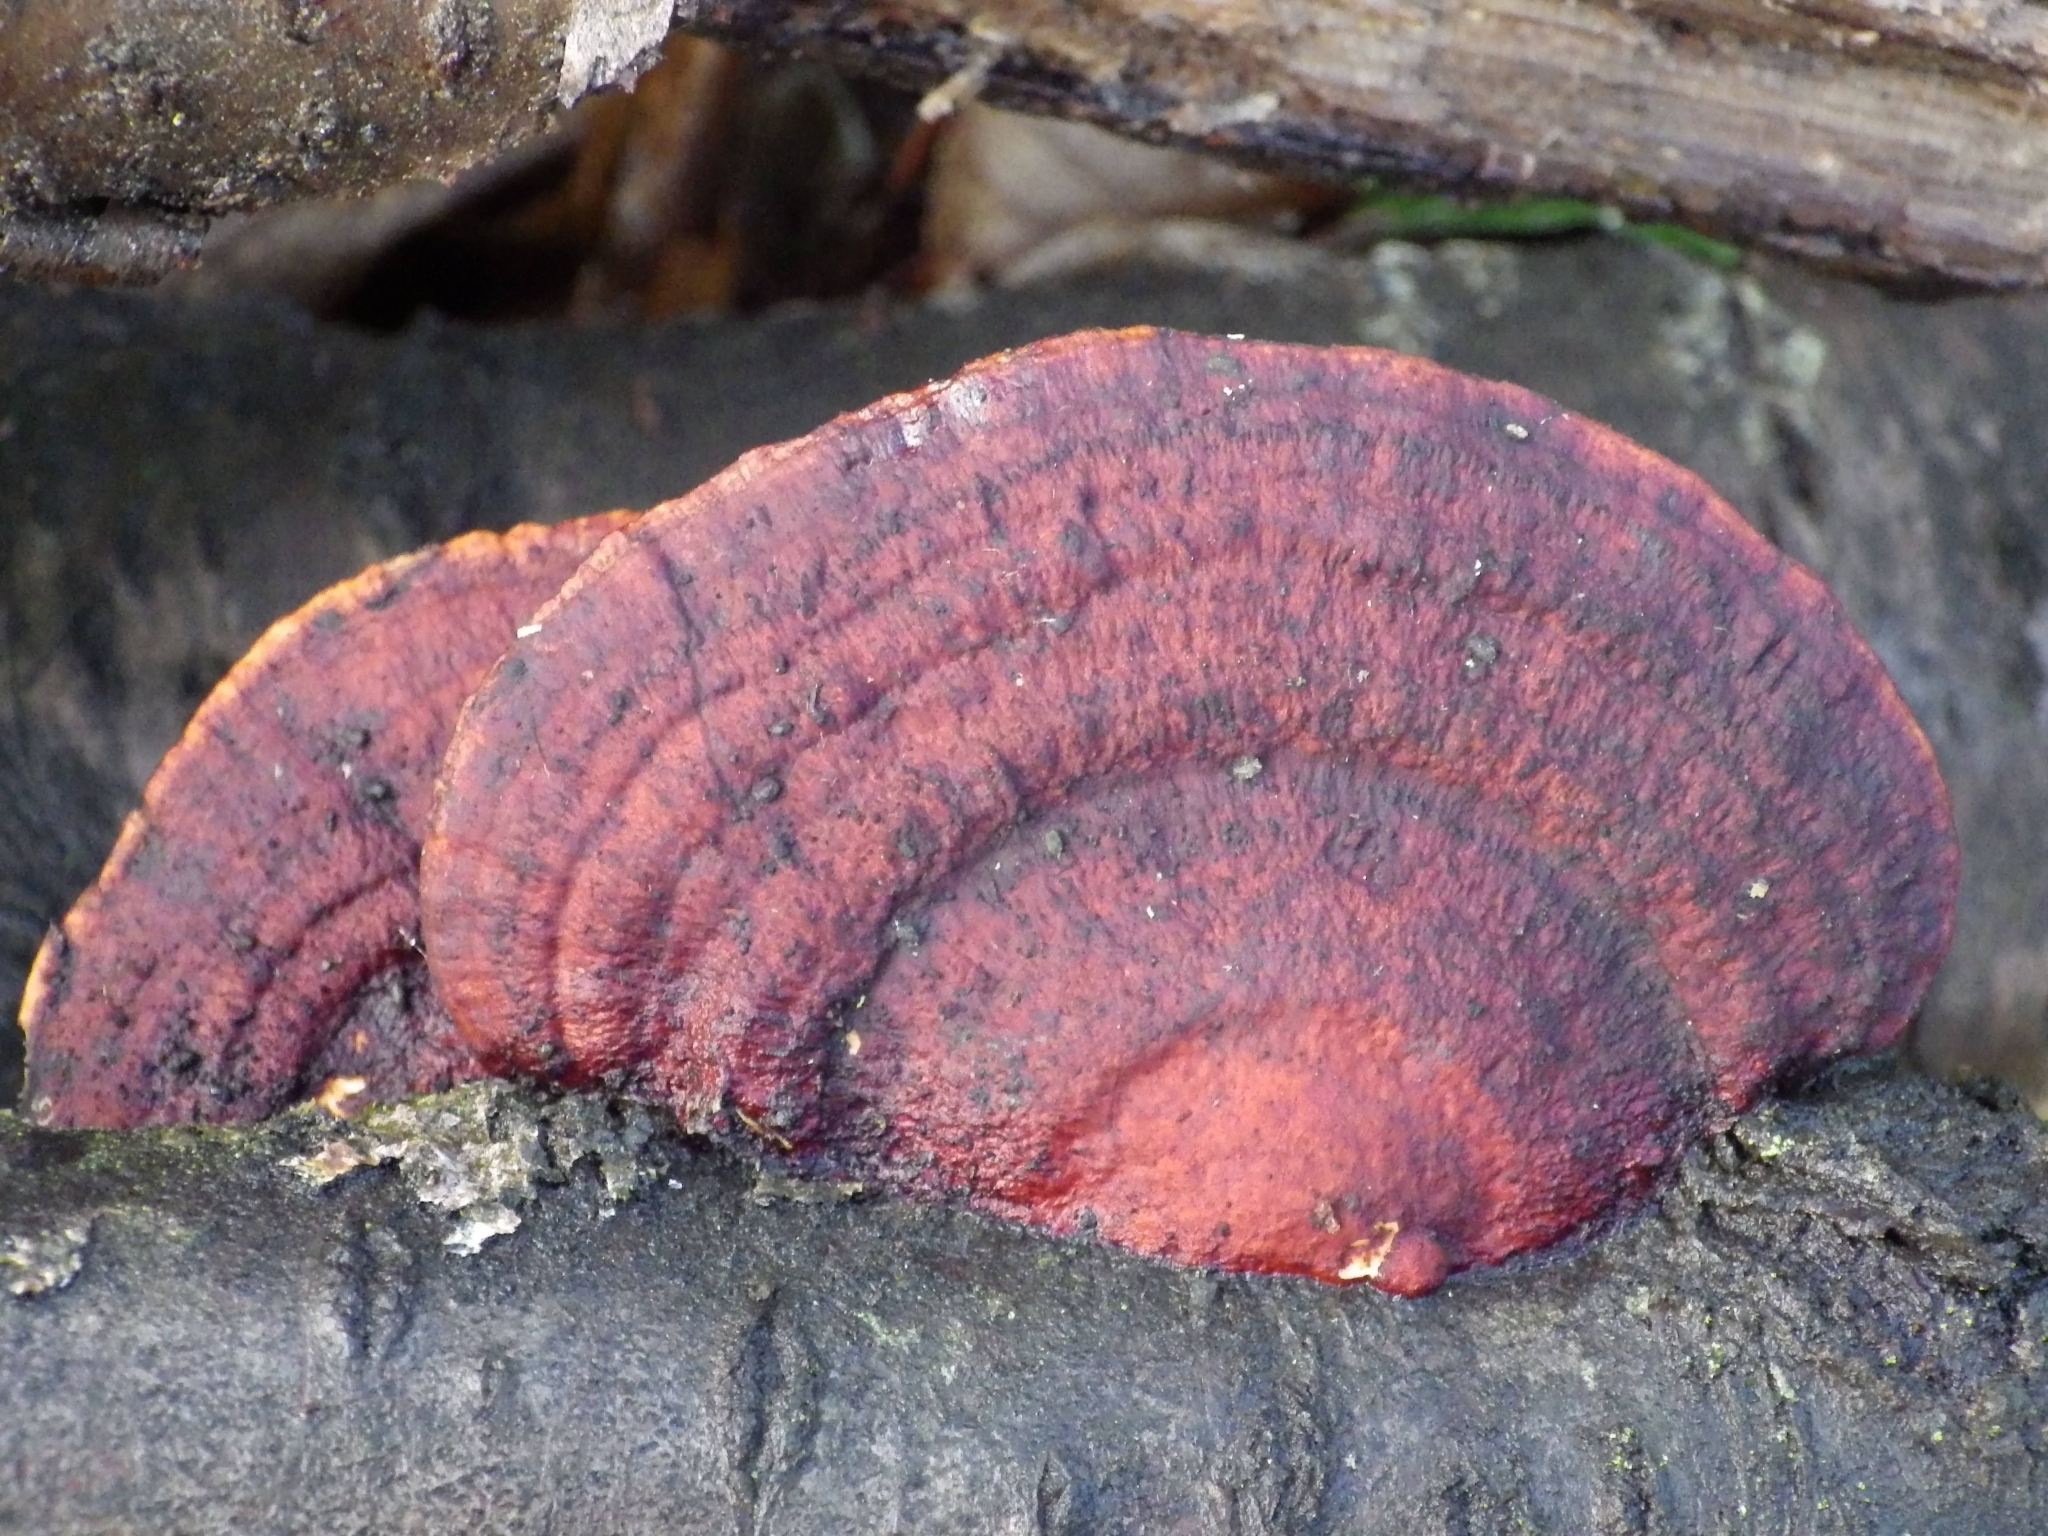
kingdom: Fungi
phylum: Basidiomycota
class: Agaricomycetes
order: Polyporales
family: Polyporaceae
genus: Daedaleopsis
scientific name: Daedaleopsis confragosa
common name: Blushing bracket
